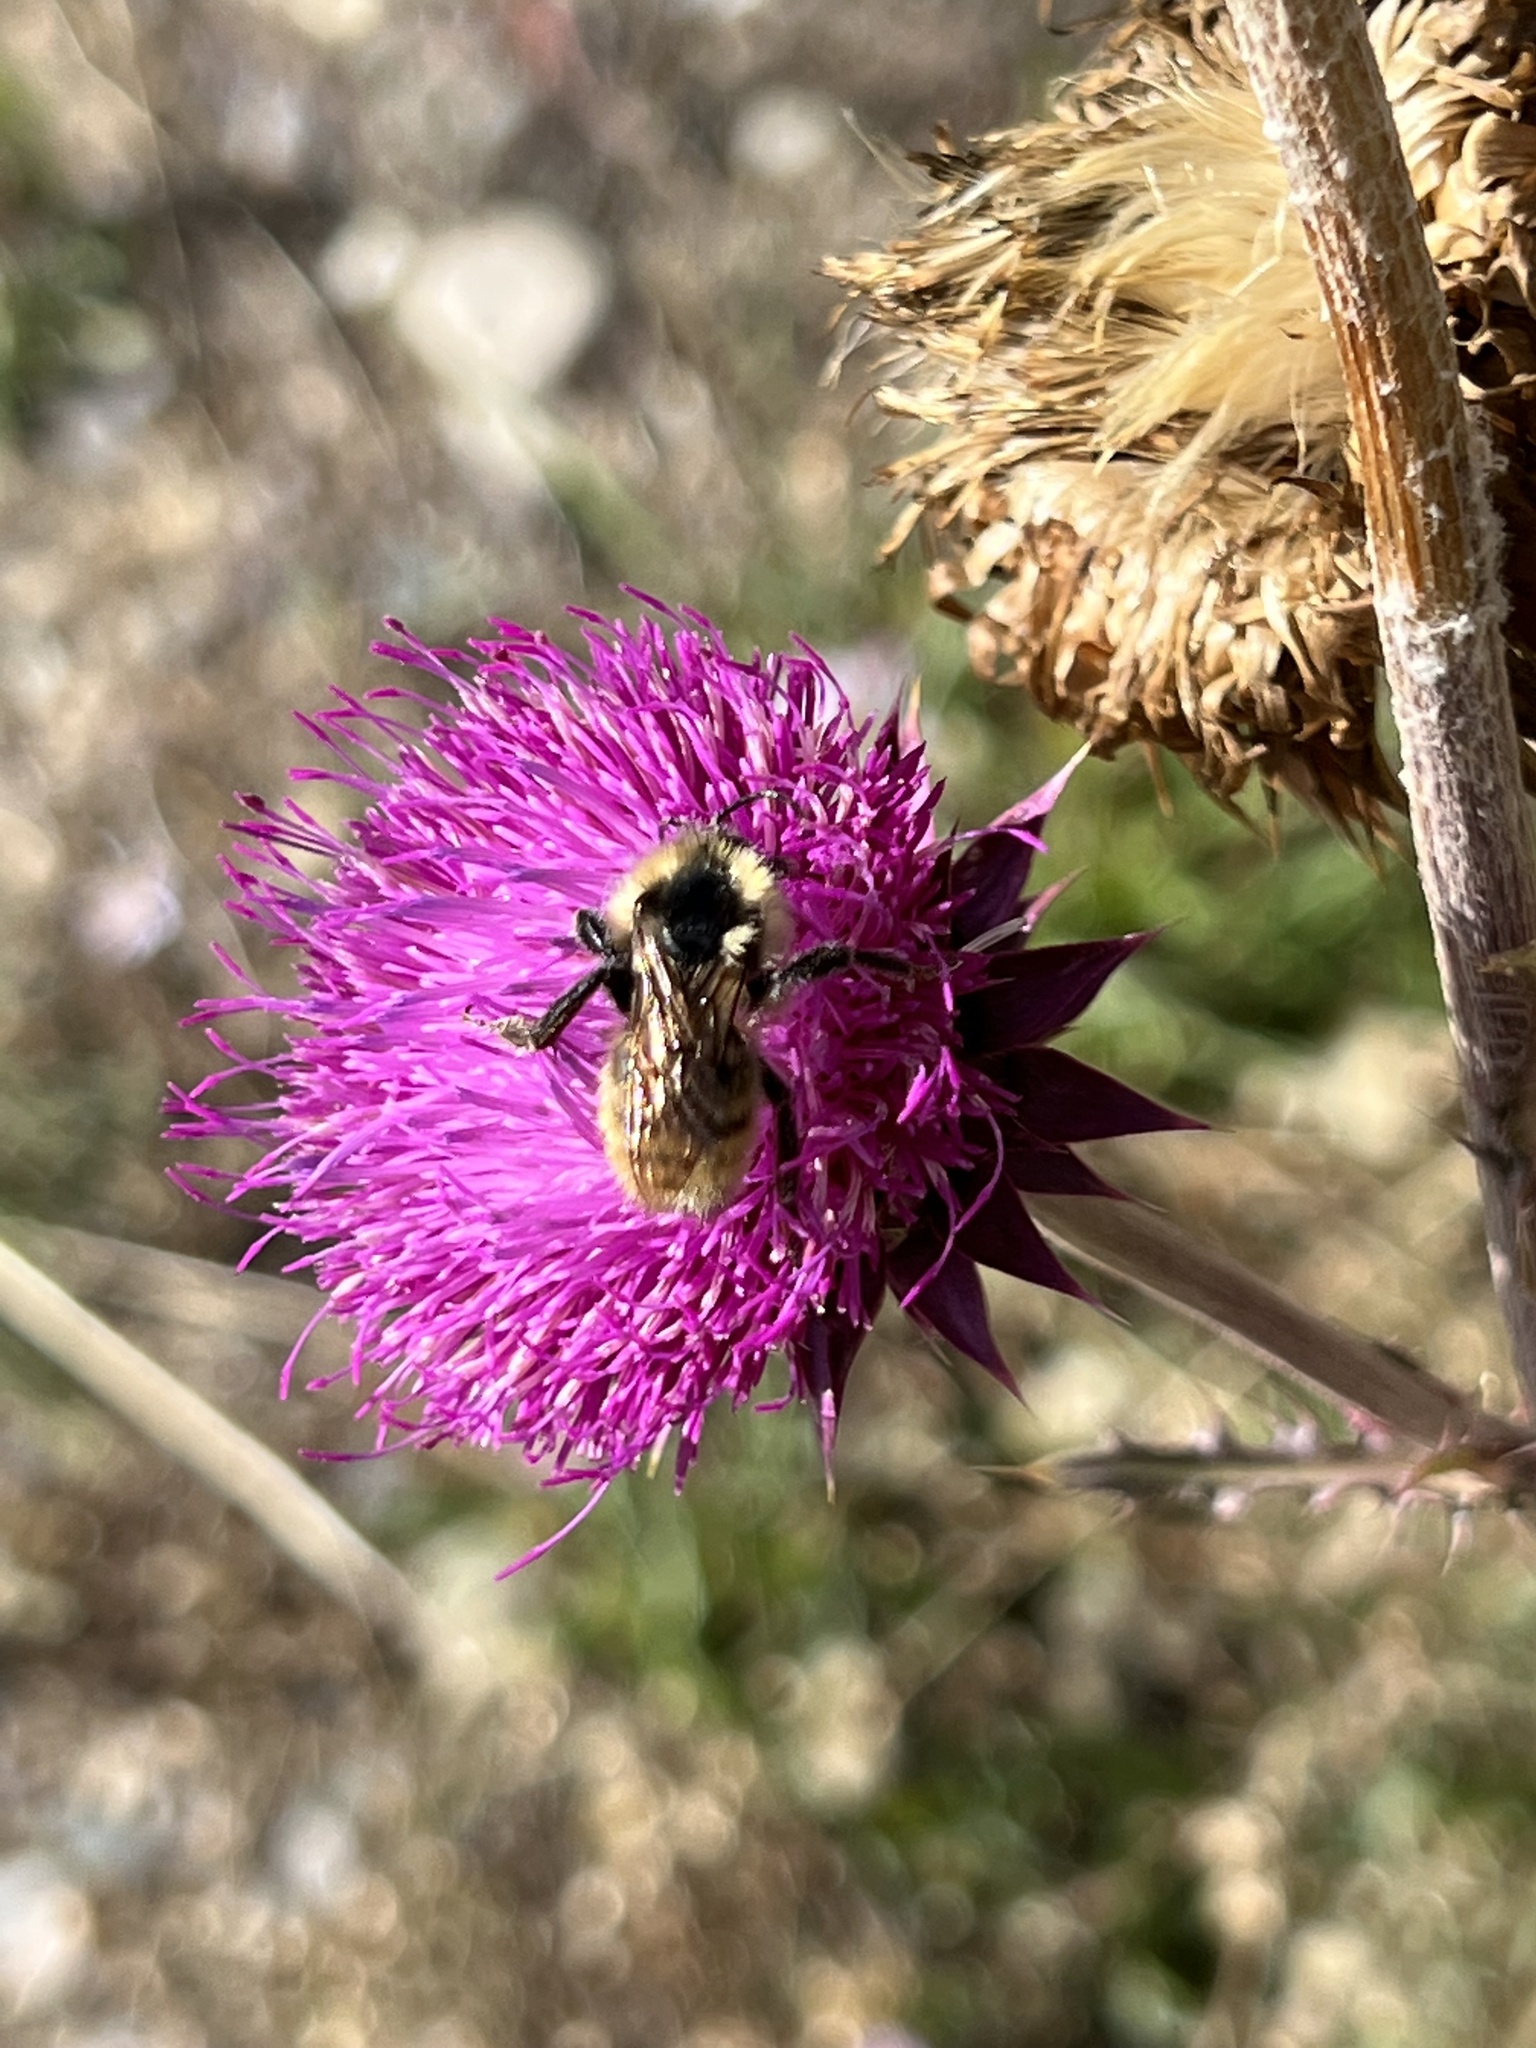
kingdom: Animalia
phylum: Arthropoda
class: Insecta
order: Hymenoptera
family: Apidae
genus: Bombus
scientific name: Bombus
